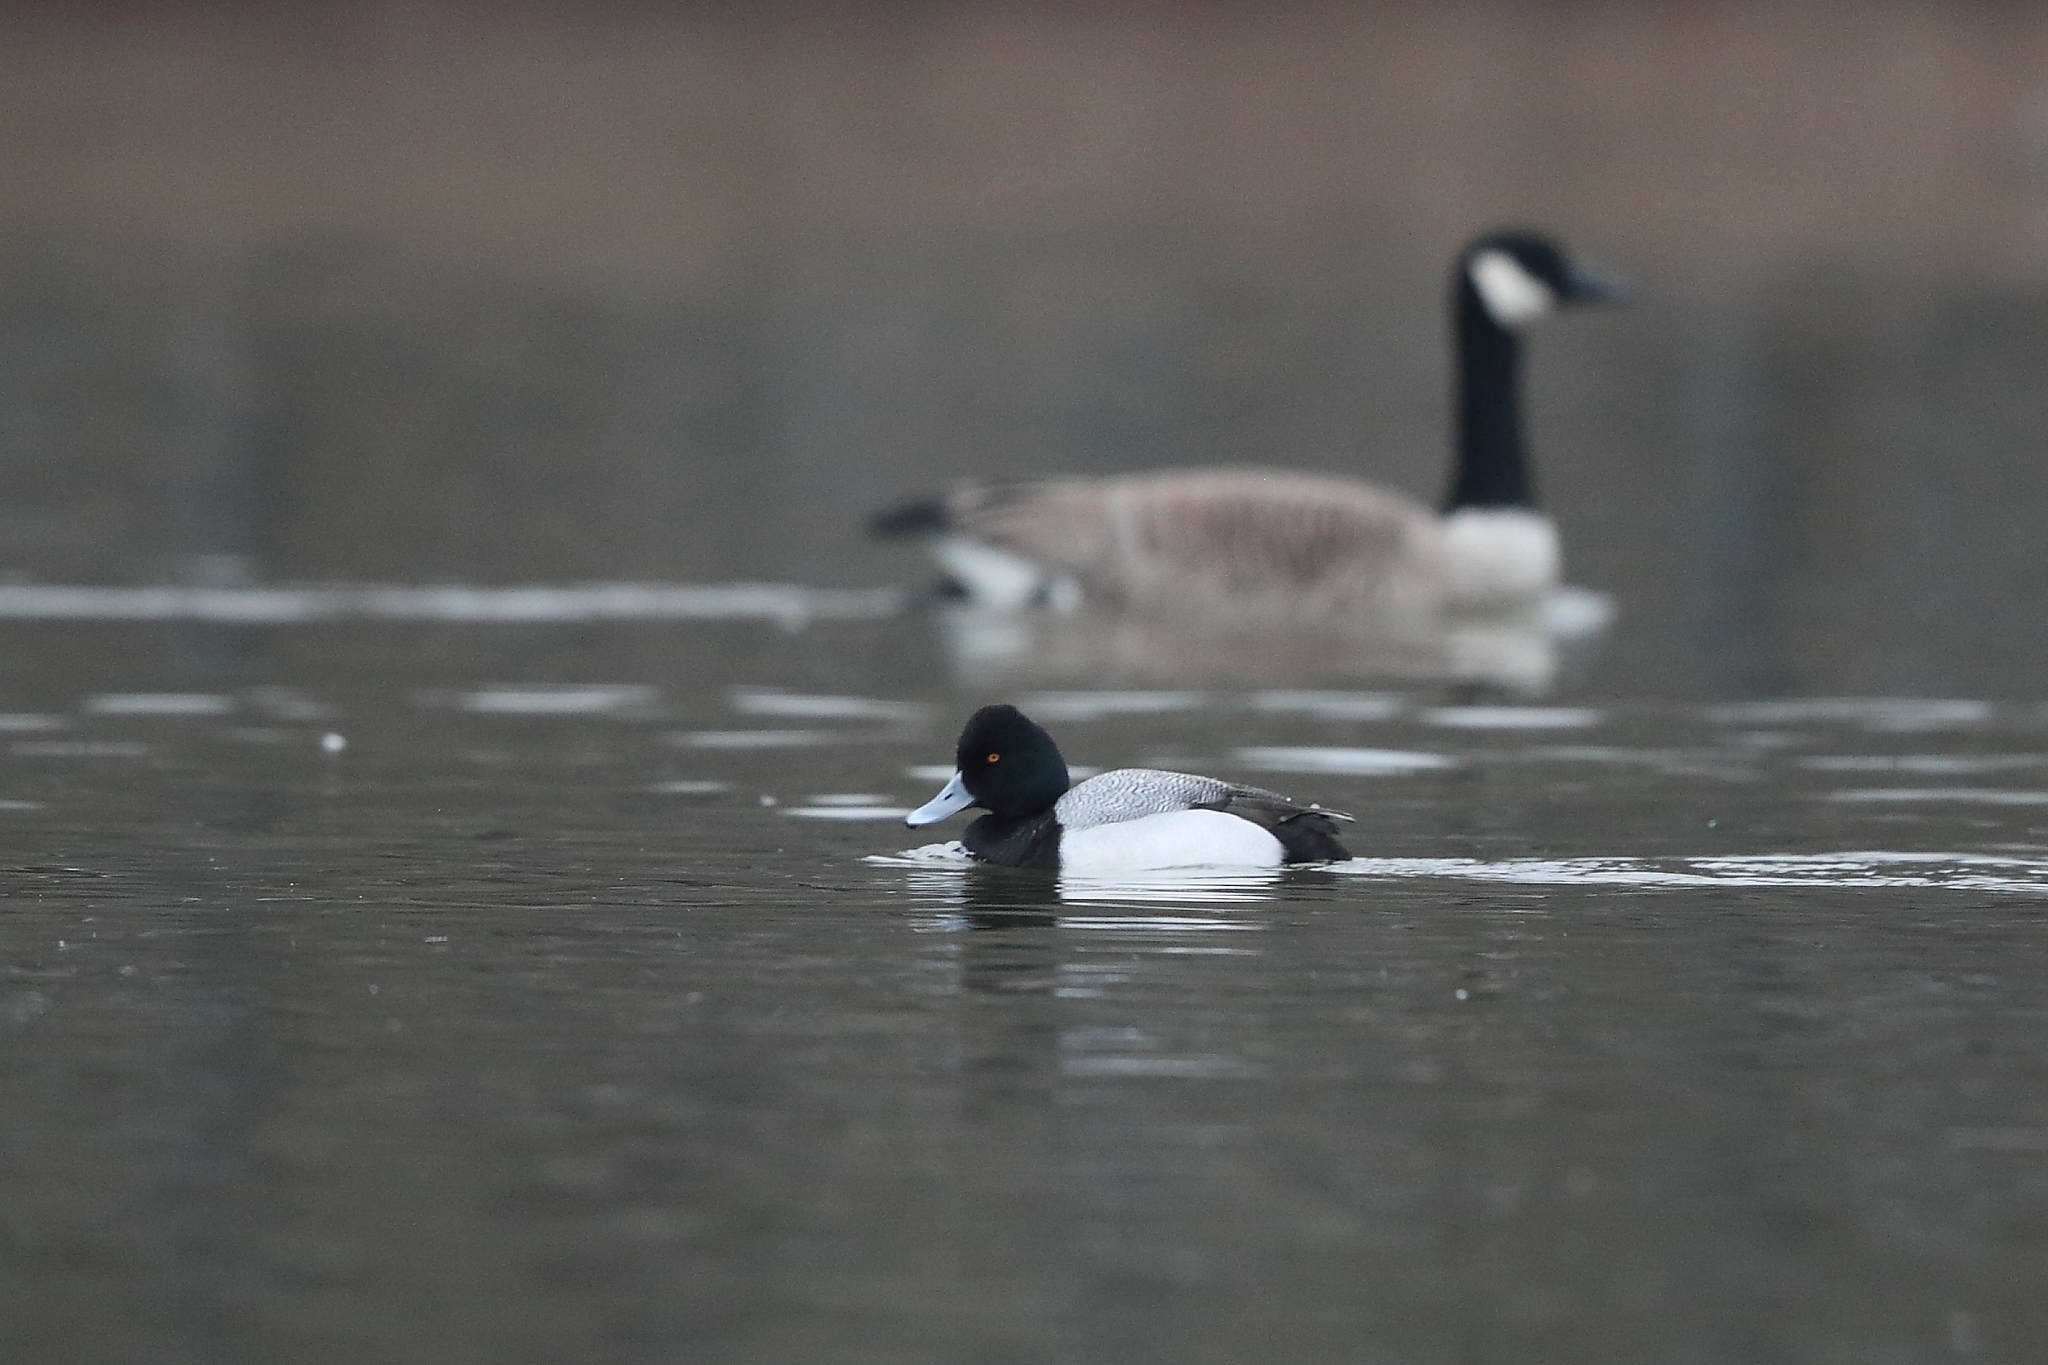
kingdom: Animalia
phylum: Chordata
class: Aves
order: Anseriformes
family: Anatidae
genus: Aythya
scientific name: Aythya affinis
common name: Lesser scaup
